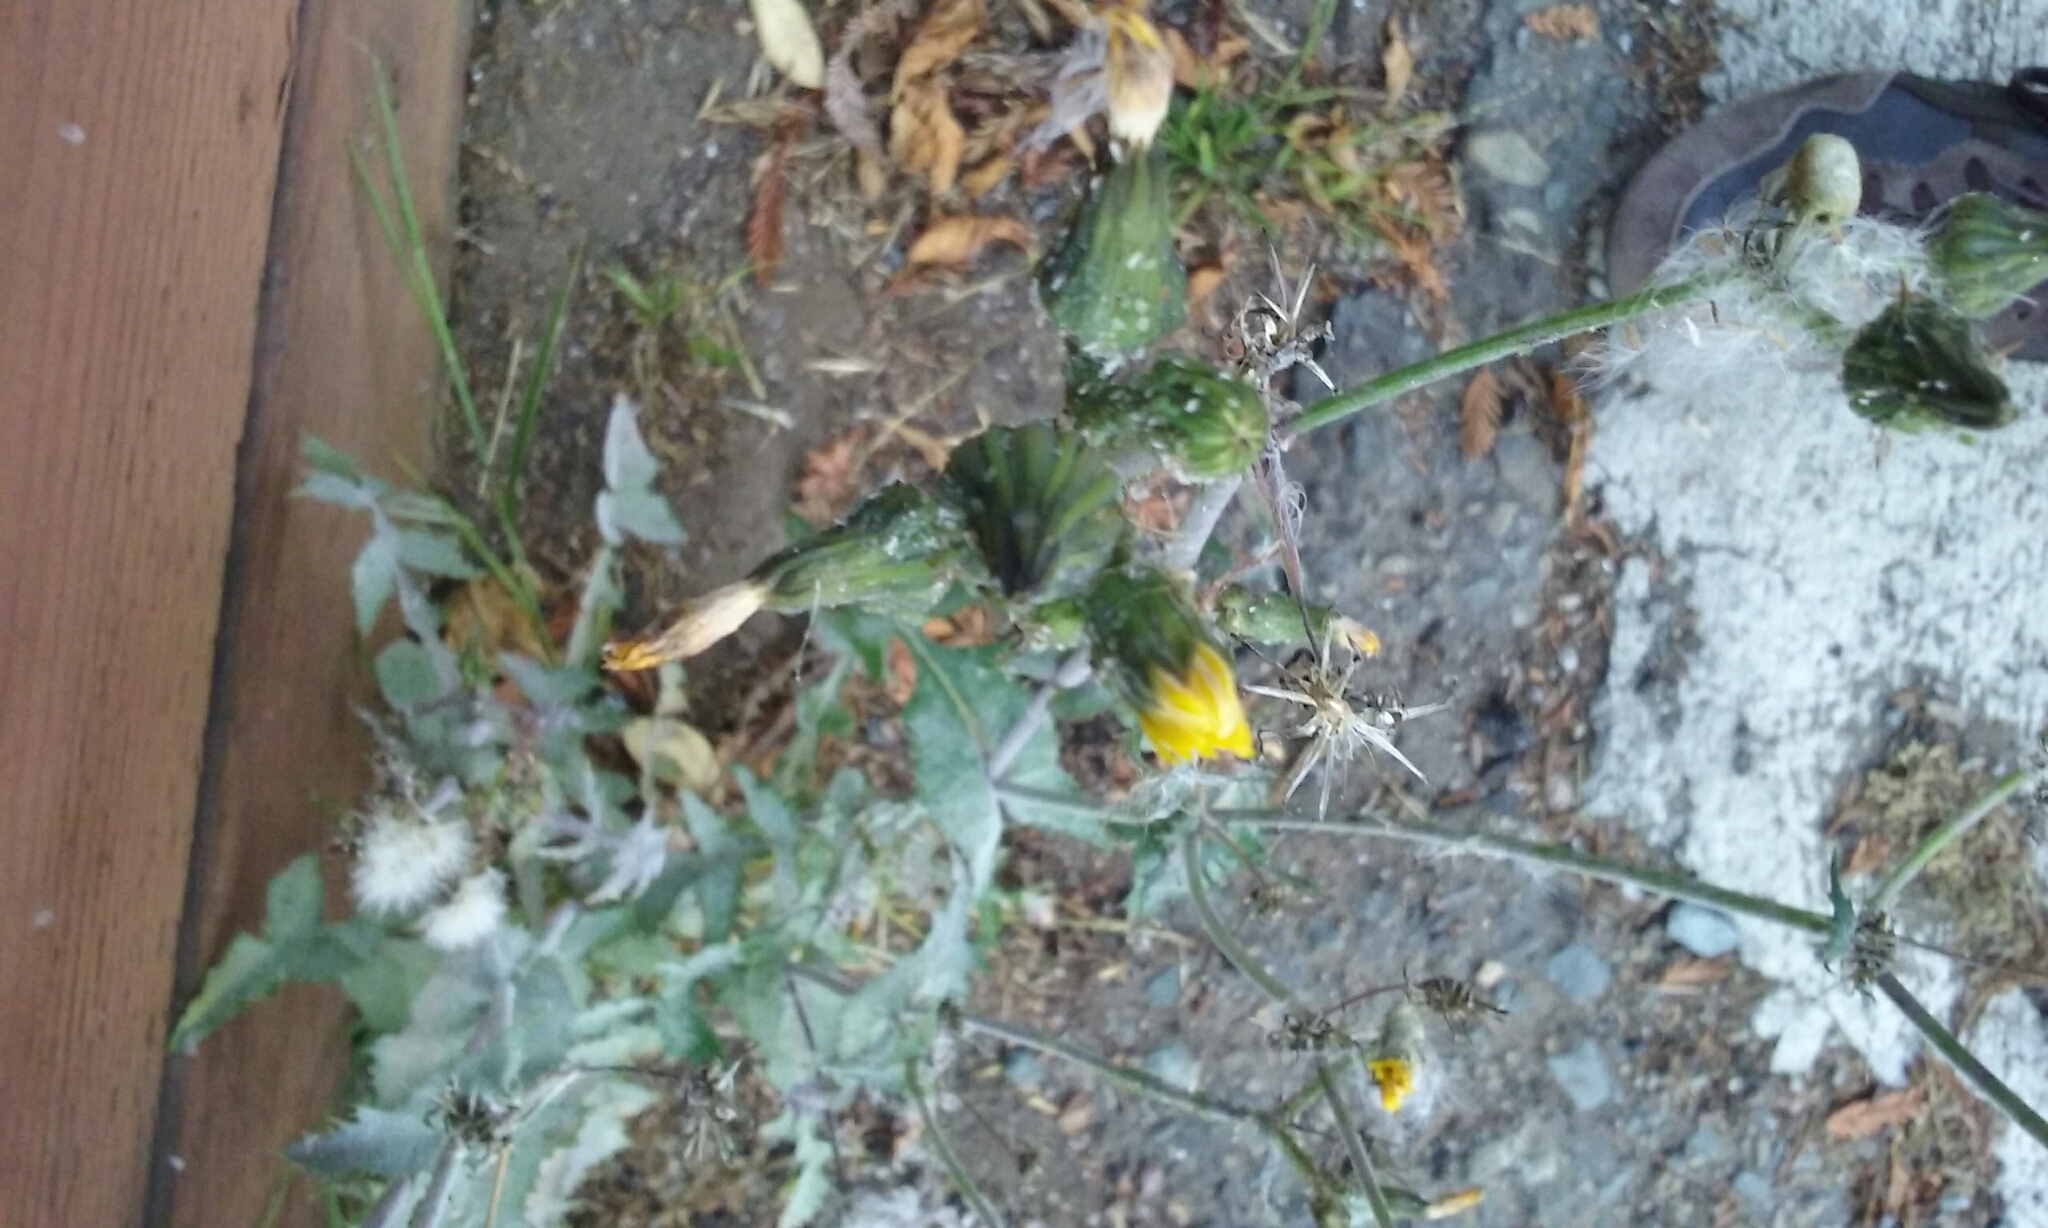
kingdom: Plantae
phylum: Tracheophyta
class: Magnoliopsida
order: Asterales
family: Asteraceae
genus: Sonchus
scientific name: Sonchus oleraceus
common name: Common sowthistle
